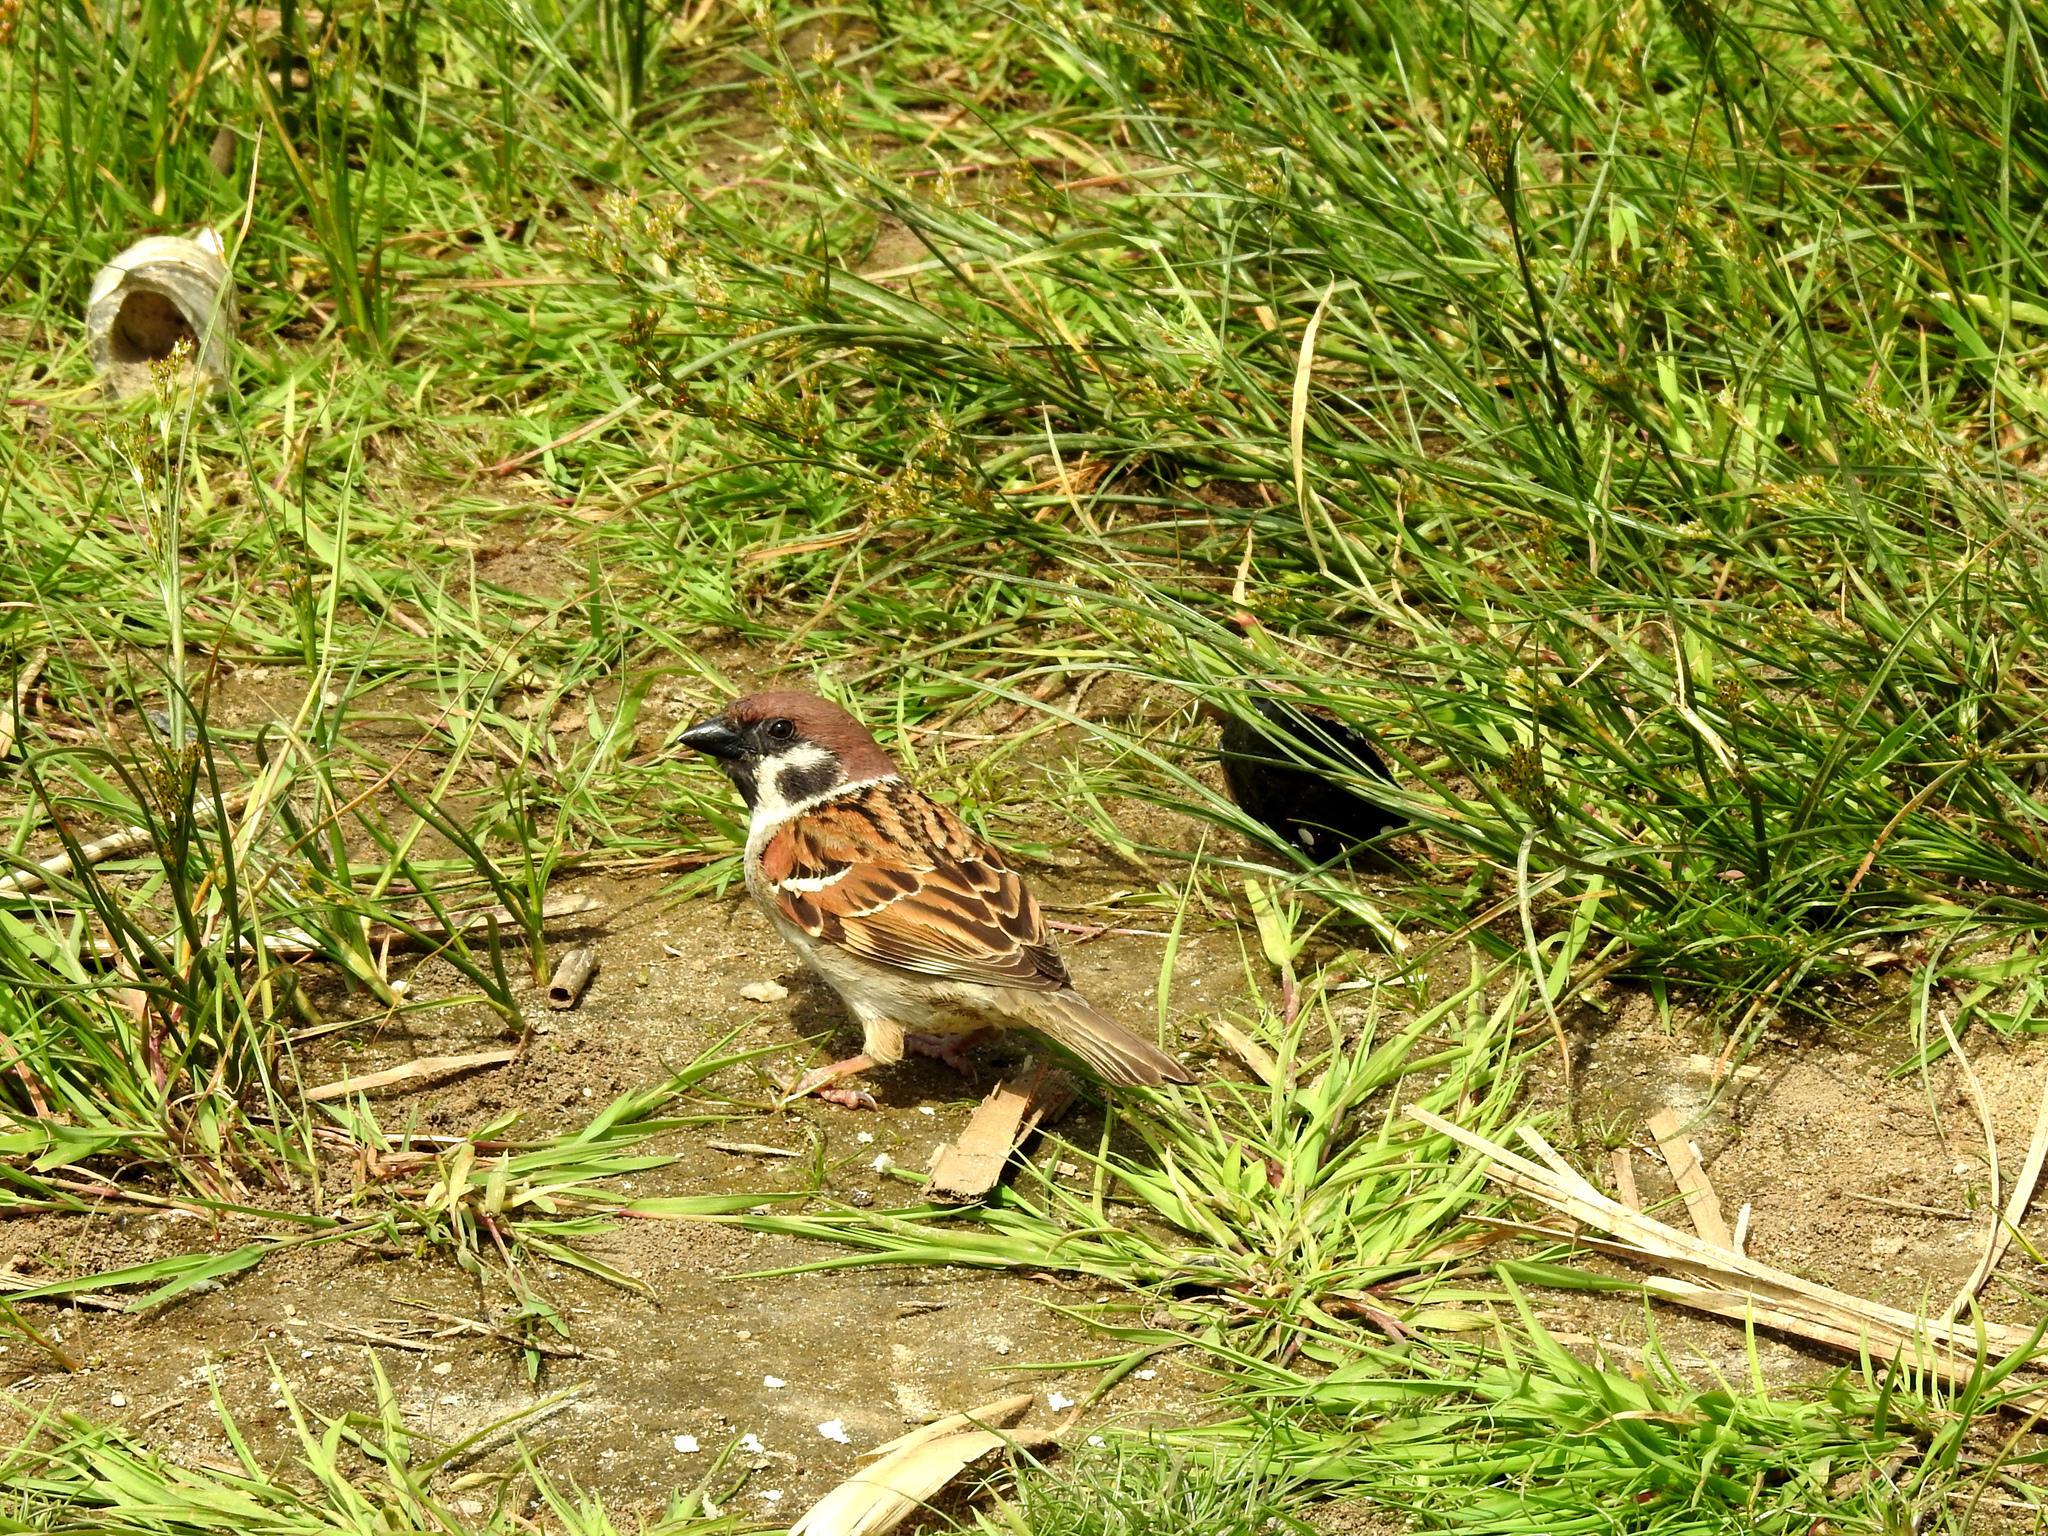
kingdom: Animalia
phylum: Chordata
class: Aves
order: Passeriformes
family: Passeridae
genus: Passer
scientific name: Passer montanus
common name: Eurasian tree sparrow
